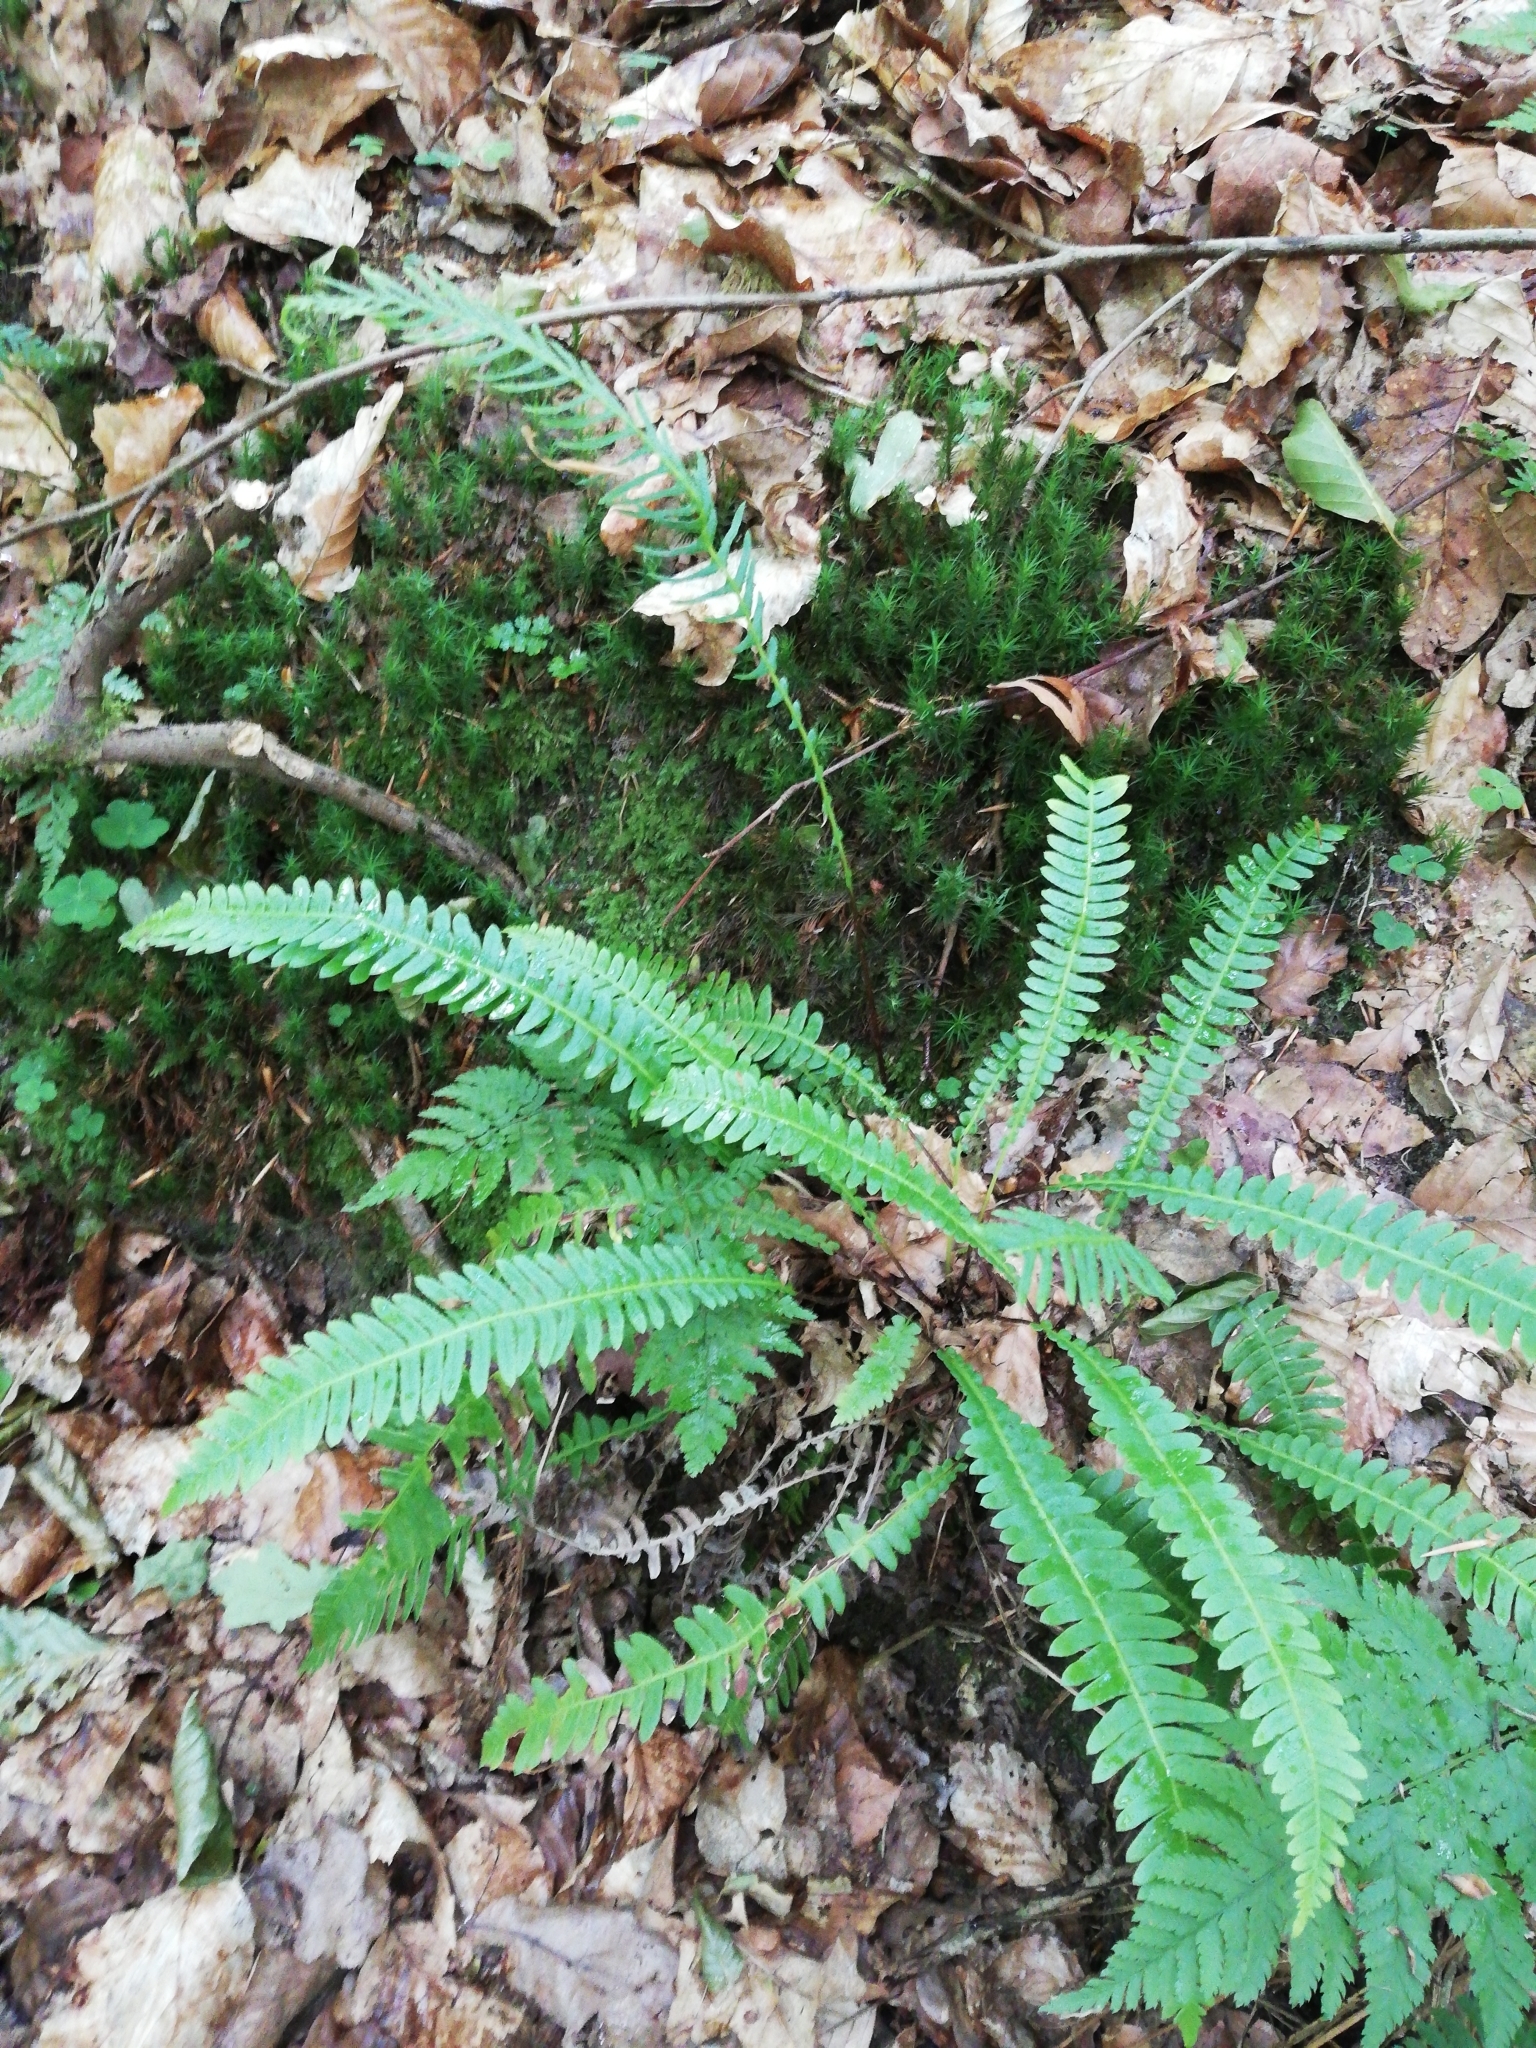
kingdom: Plantae
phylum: Tracheophyta
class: Polypodiopsida
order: Polypodiales
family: Blechnaceae
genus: Struthiopteris
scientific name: Struthiopteris spicant
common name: Deer fern
